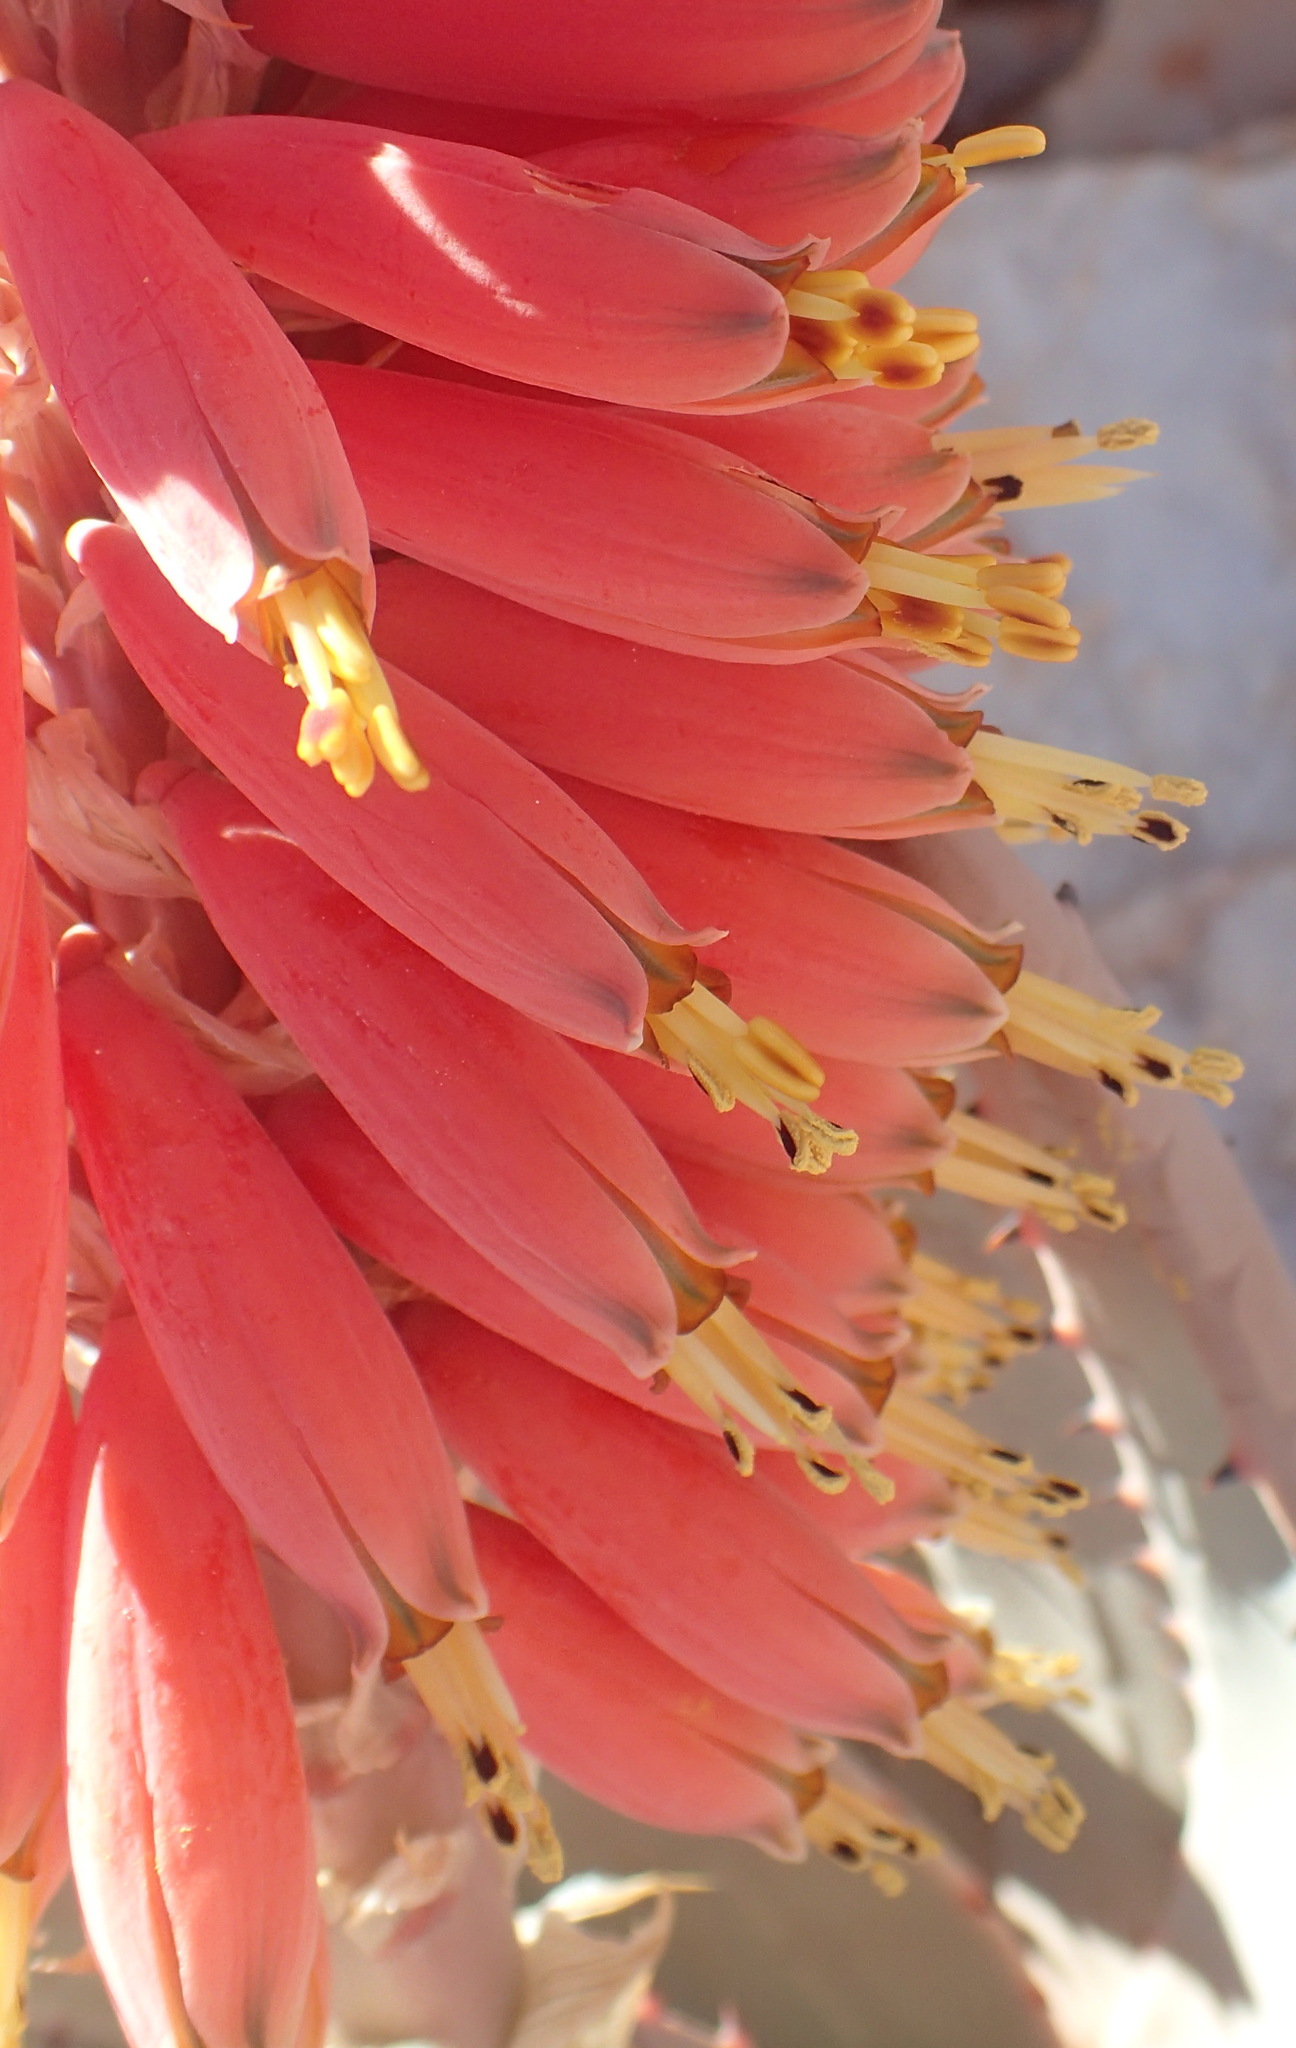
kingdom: Plantae
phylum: Tracheophyta
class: Liliopsida
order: Asparagales
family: Asphodelaceae
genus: Aloe
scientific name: Aloe claviflora
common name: Cannon aloe
